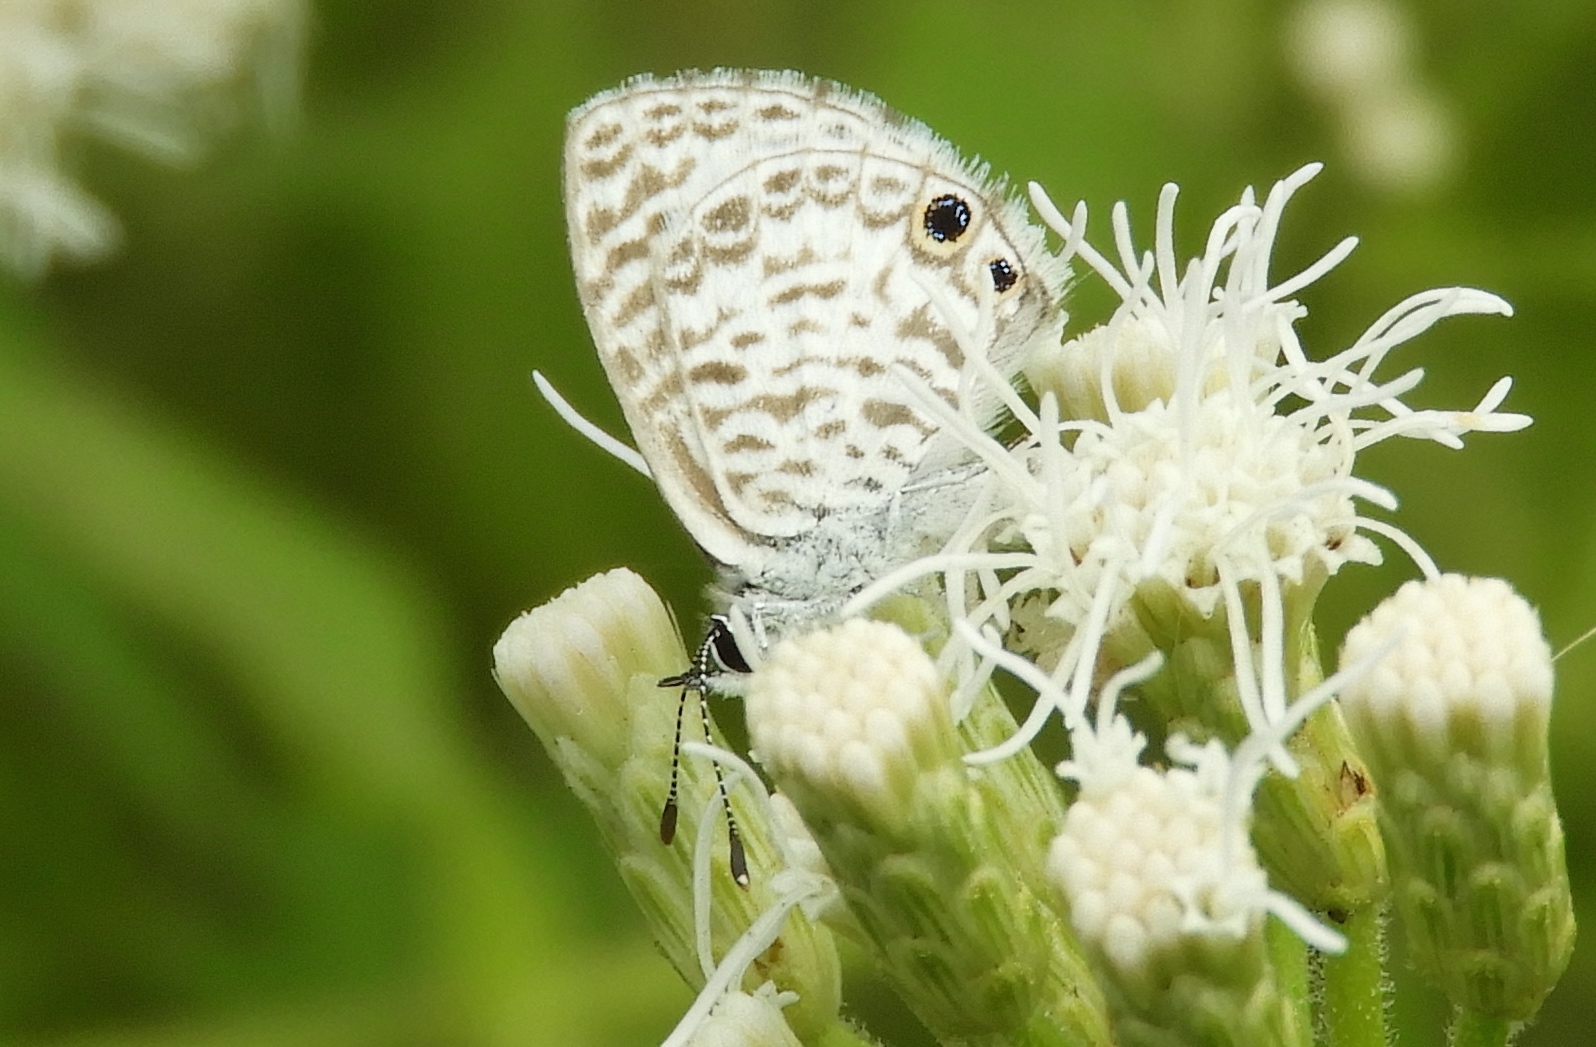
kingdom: Animalia
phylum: Arthropoda
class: Insecta
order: Lepidoptera
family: Lycaenidae
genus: Leptotes
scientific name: Leptotes cassius
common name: Cassius blue
